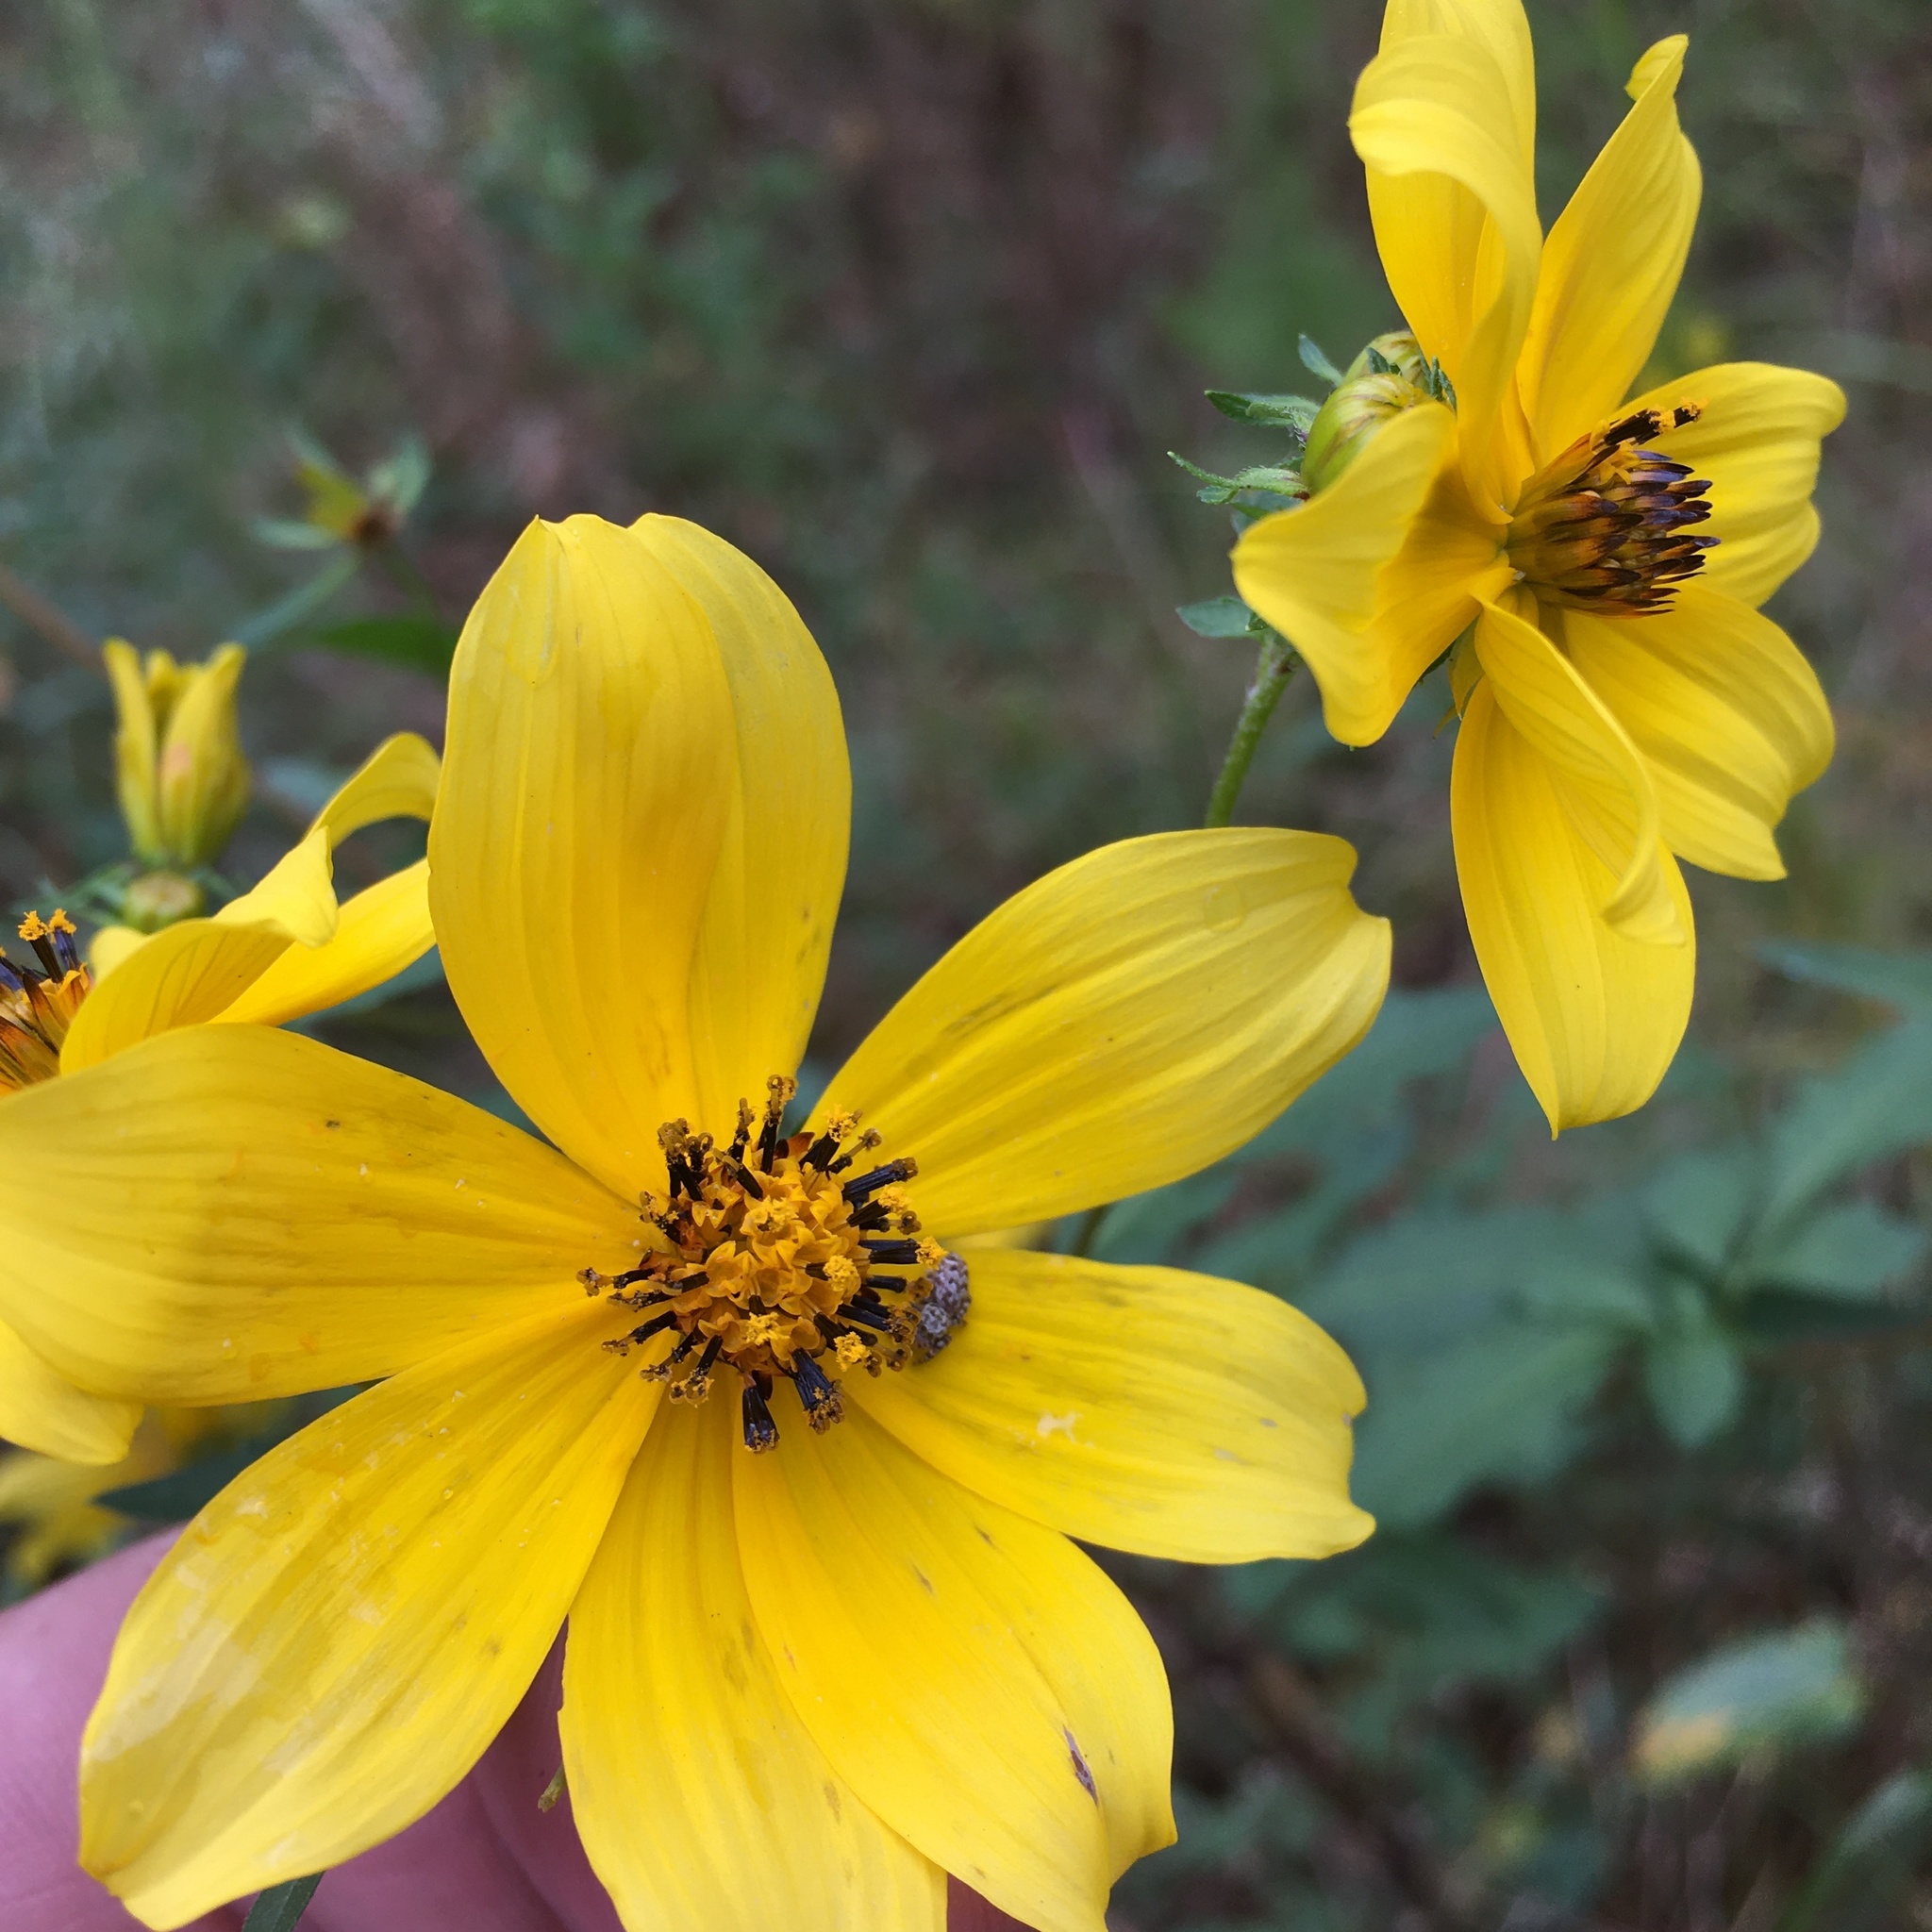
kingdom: Plantae
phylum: Tracheophyta
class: Magnoliopsida
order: Asterales
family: Asteraceae
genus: Bidens
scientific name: Bidens aristosa
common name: Western tickseed
